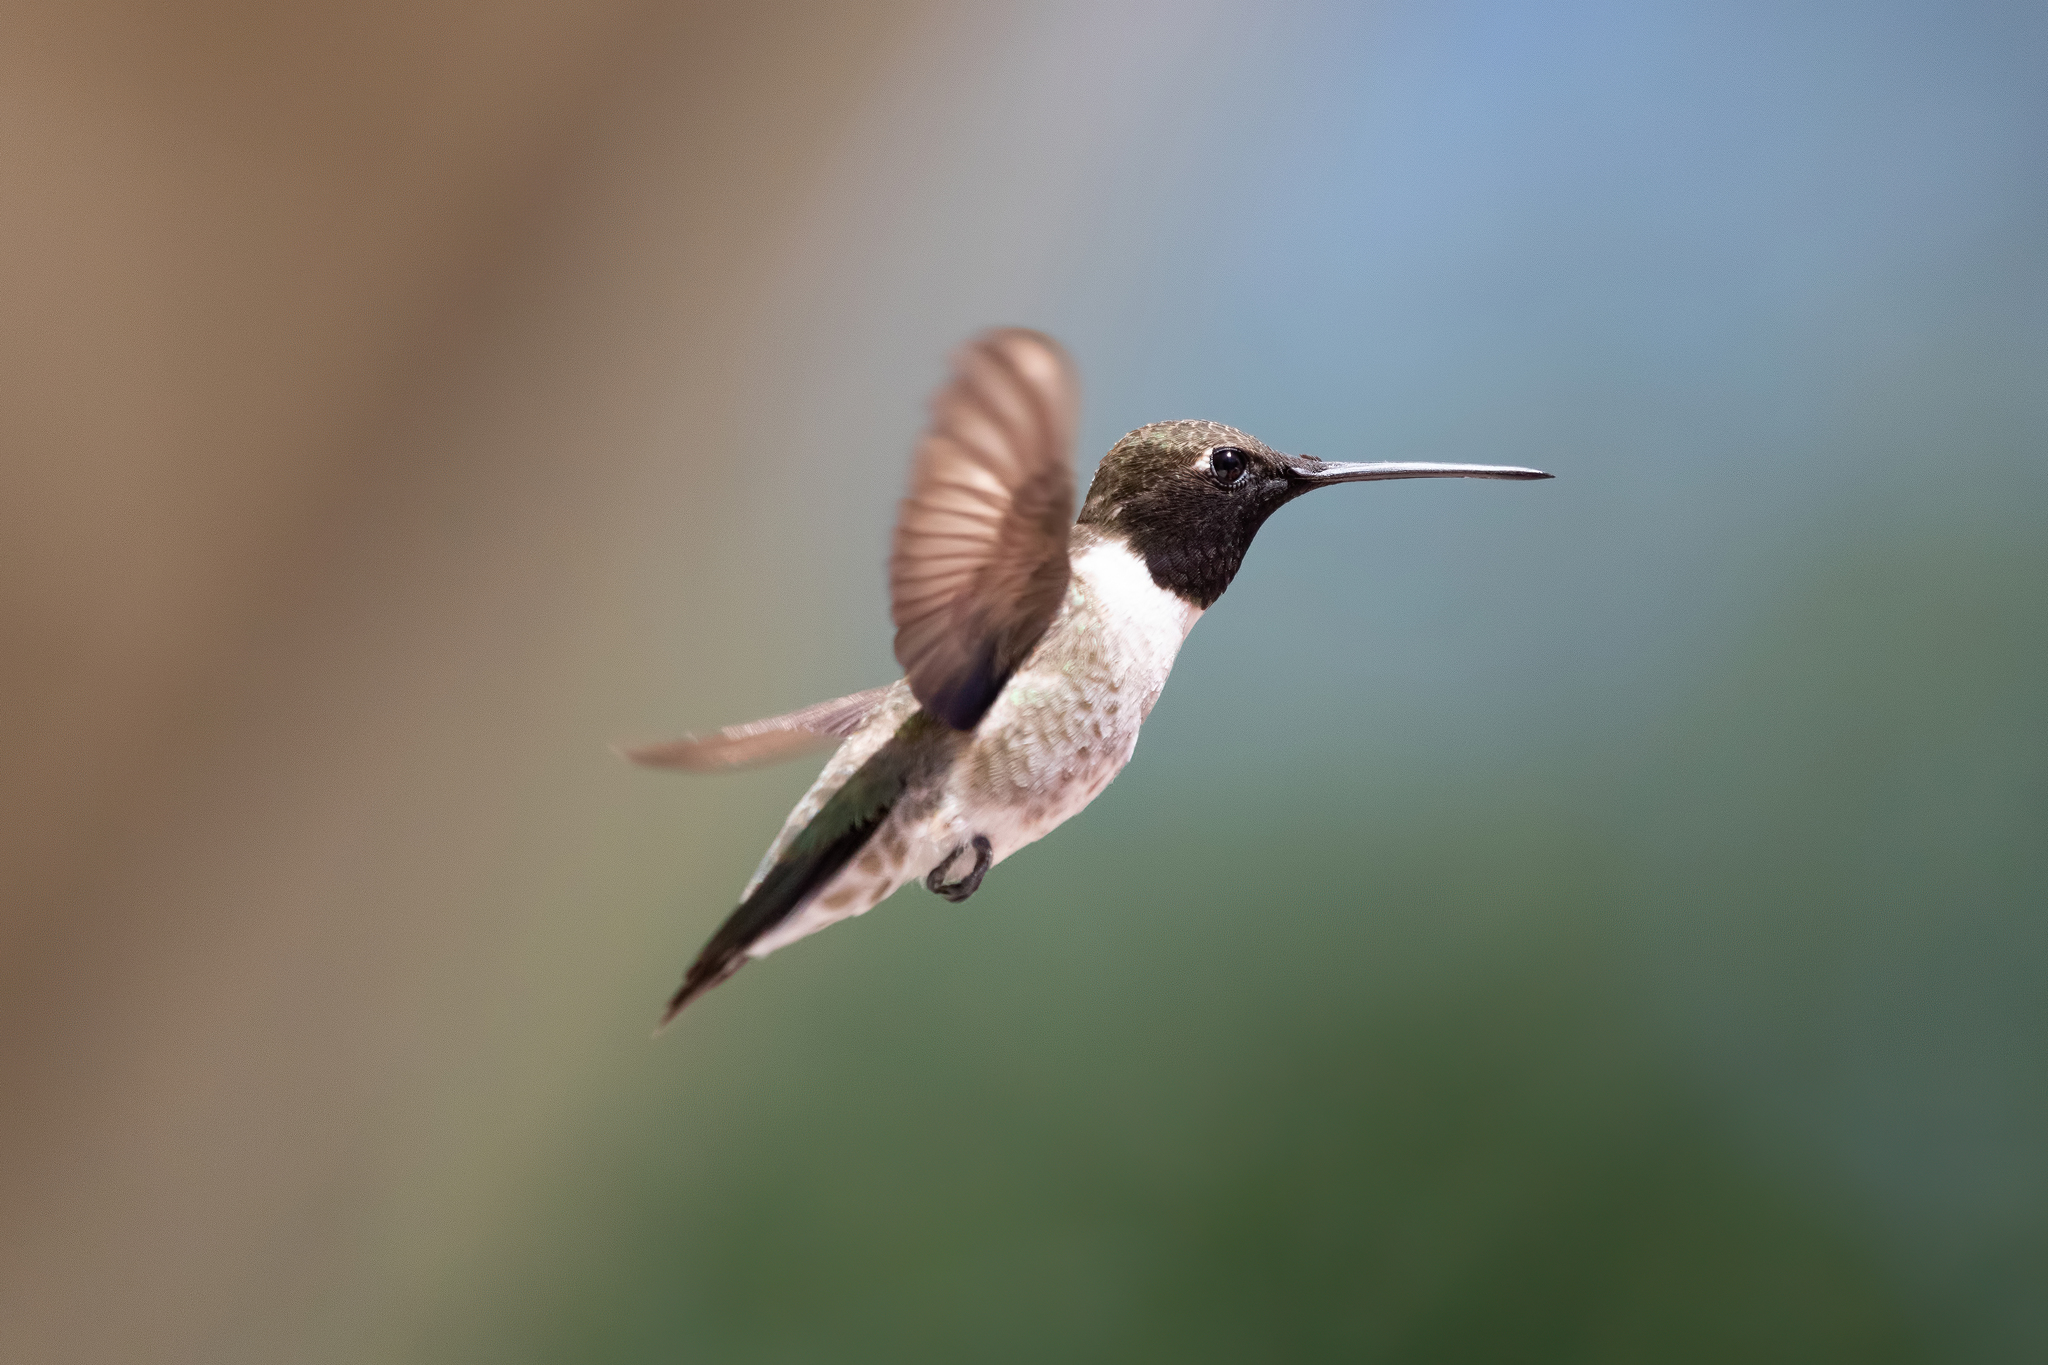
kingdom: Animalia
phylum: Chordata
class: Aves
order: Apodiformes
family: Trochilidae
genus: Archilochus
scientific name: Archilochus alexandri
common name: Black-chinned hummingbird
